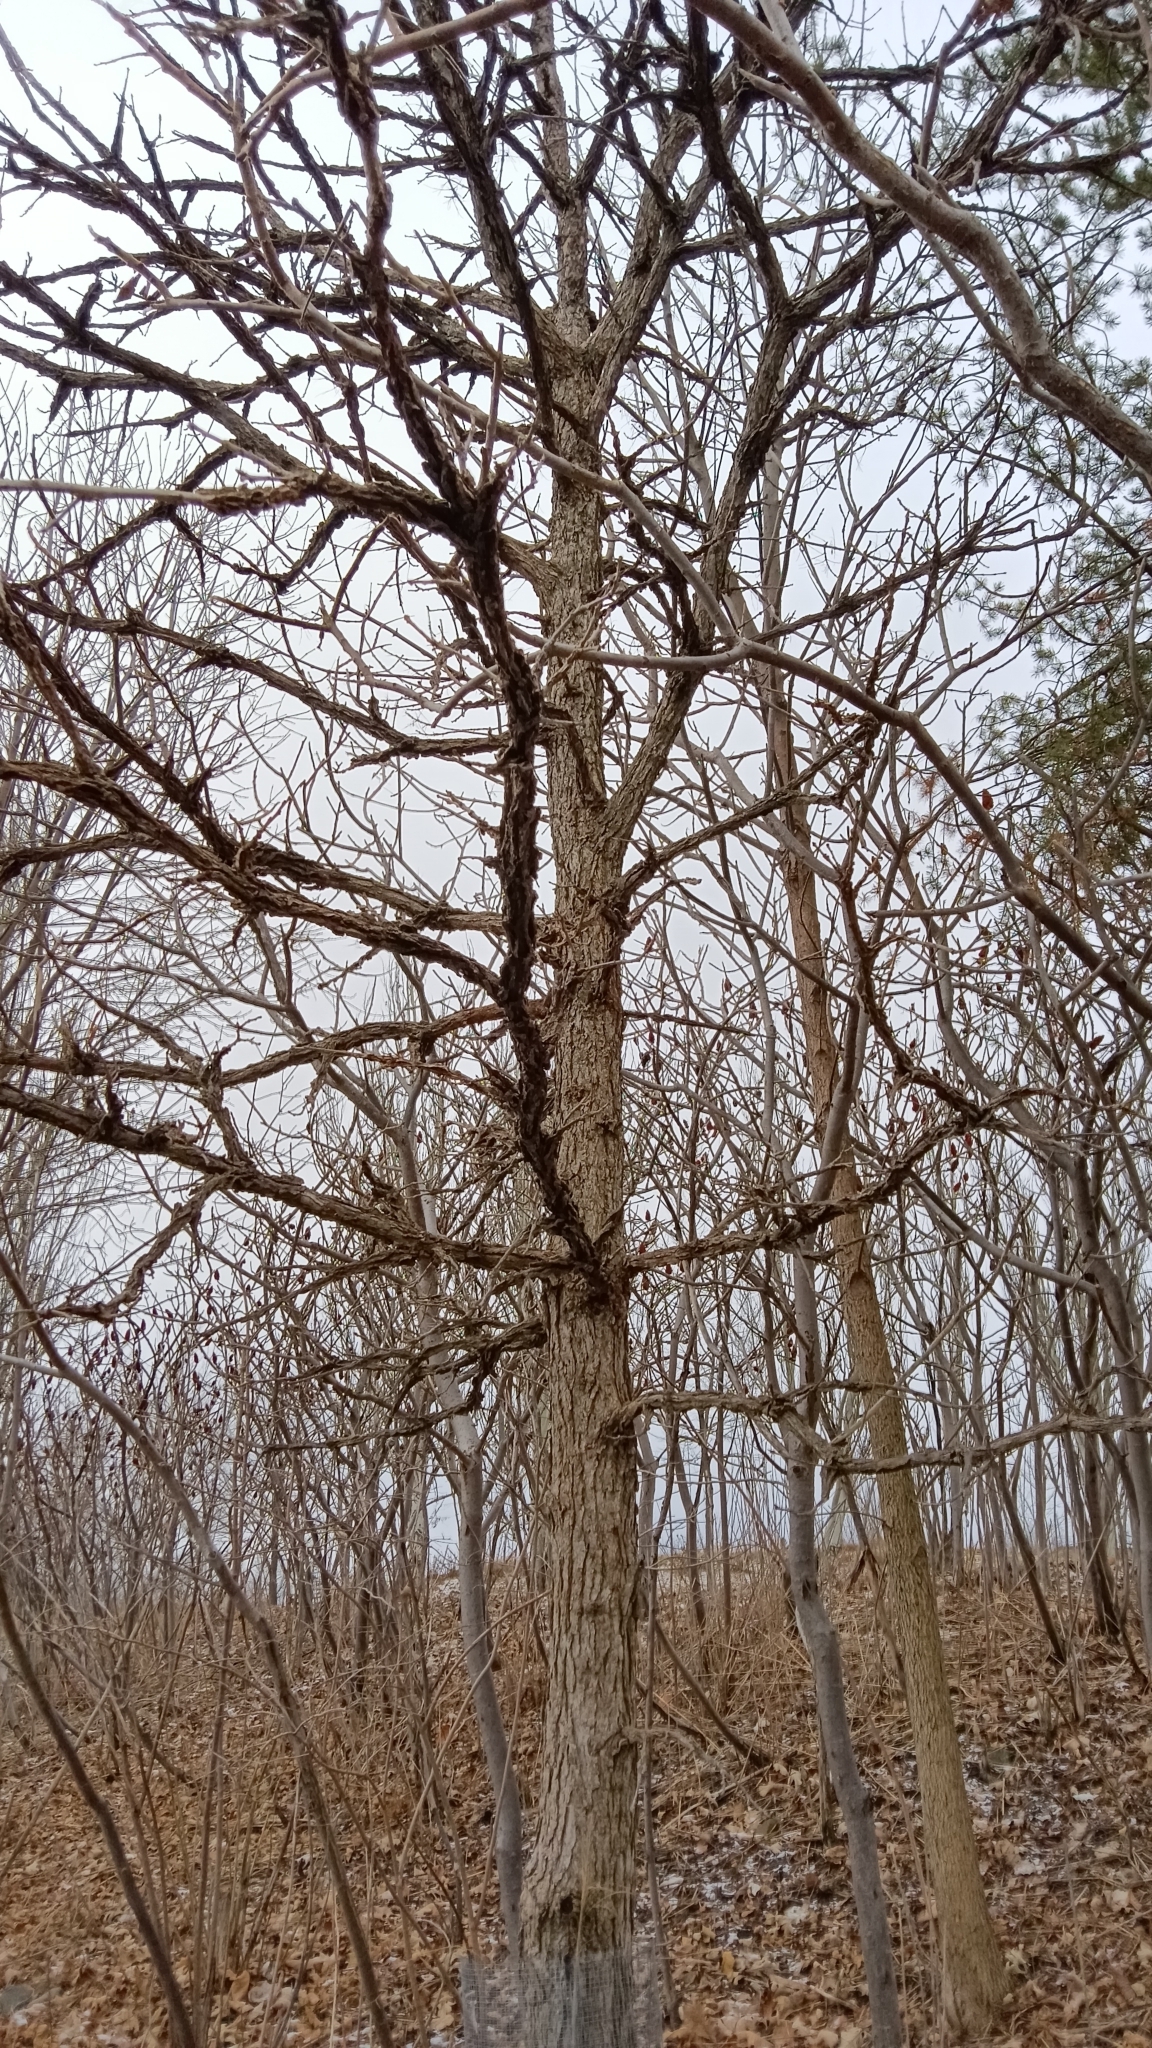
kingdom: Plantae
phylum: Tracheophyta
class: Magnoliopsida
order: Fagales
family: Fagaceae
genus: Quercus
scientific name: Quercus macrocarpa
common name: Bur oak
